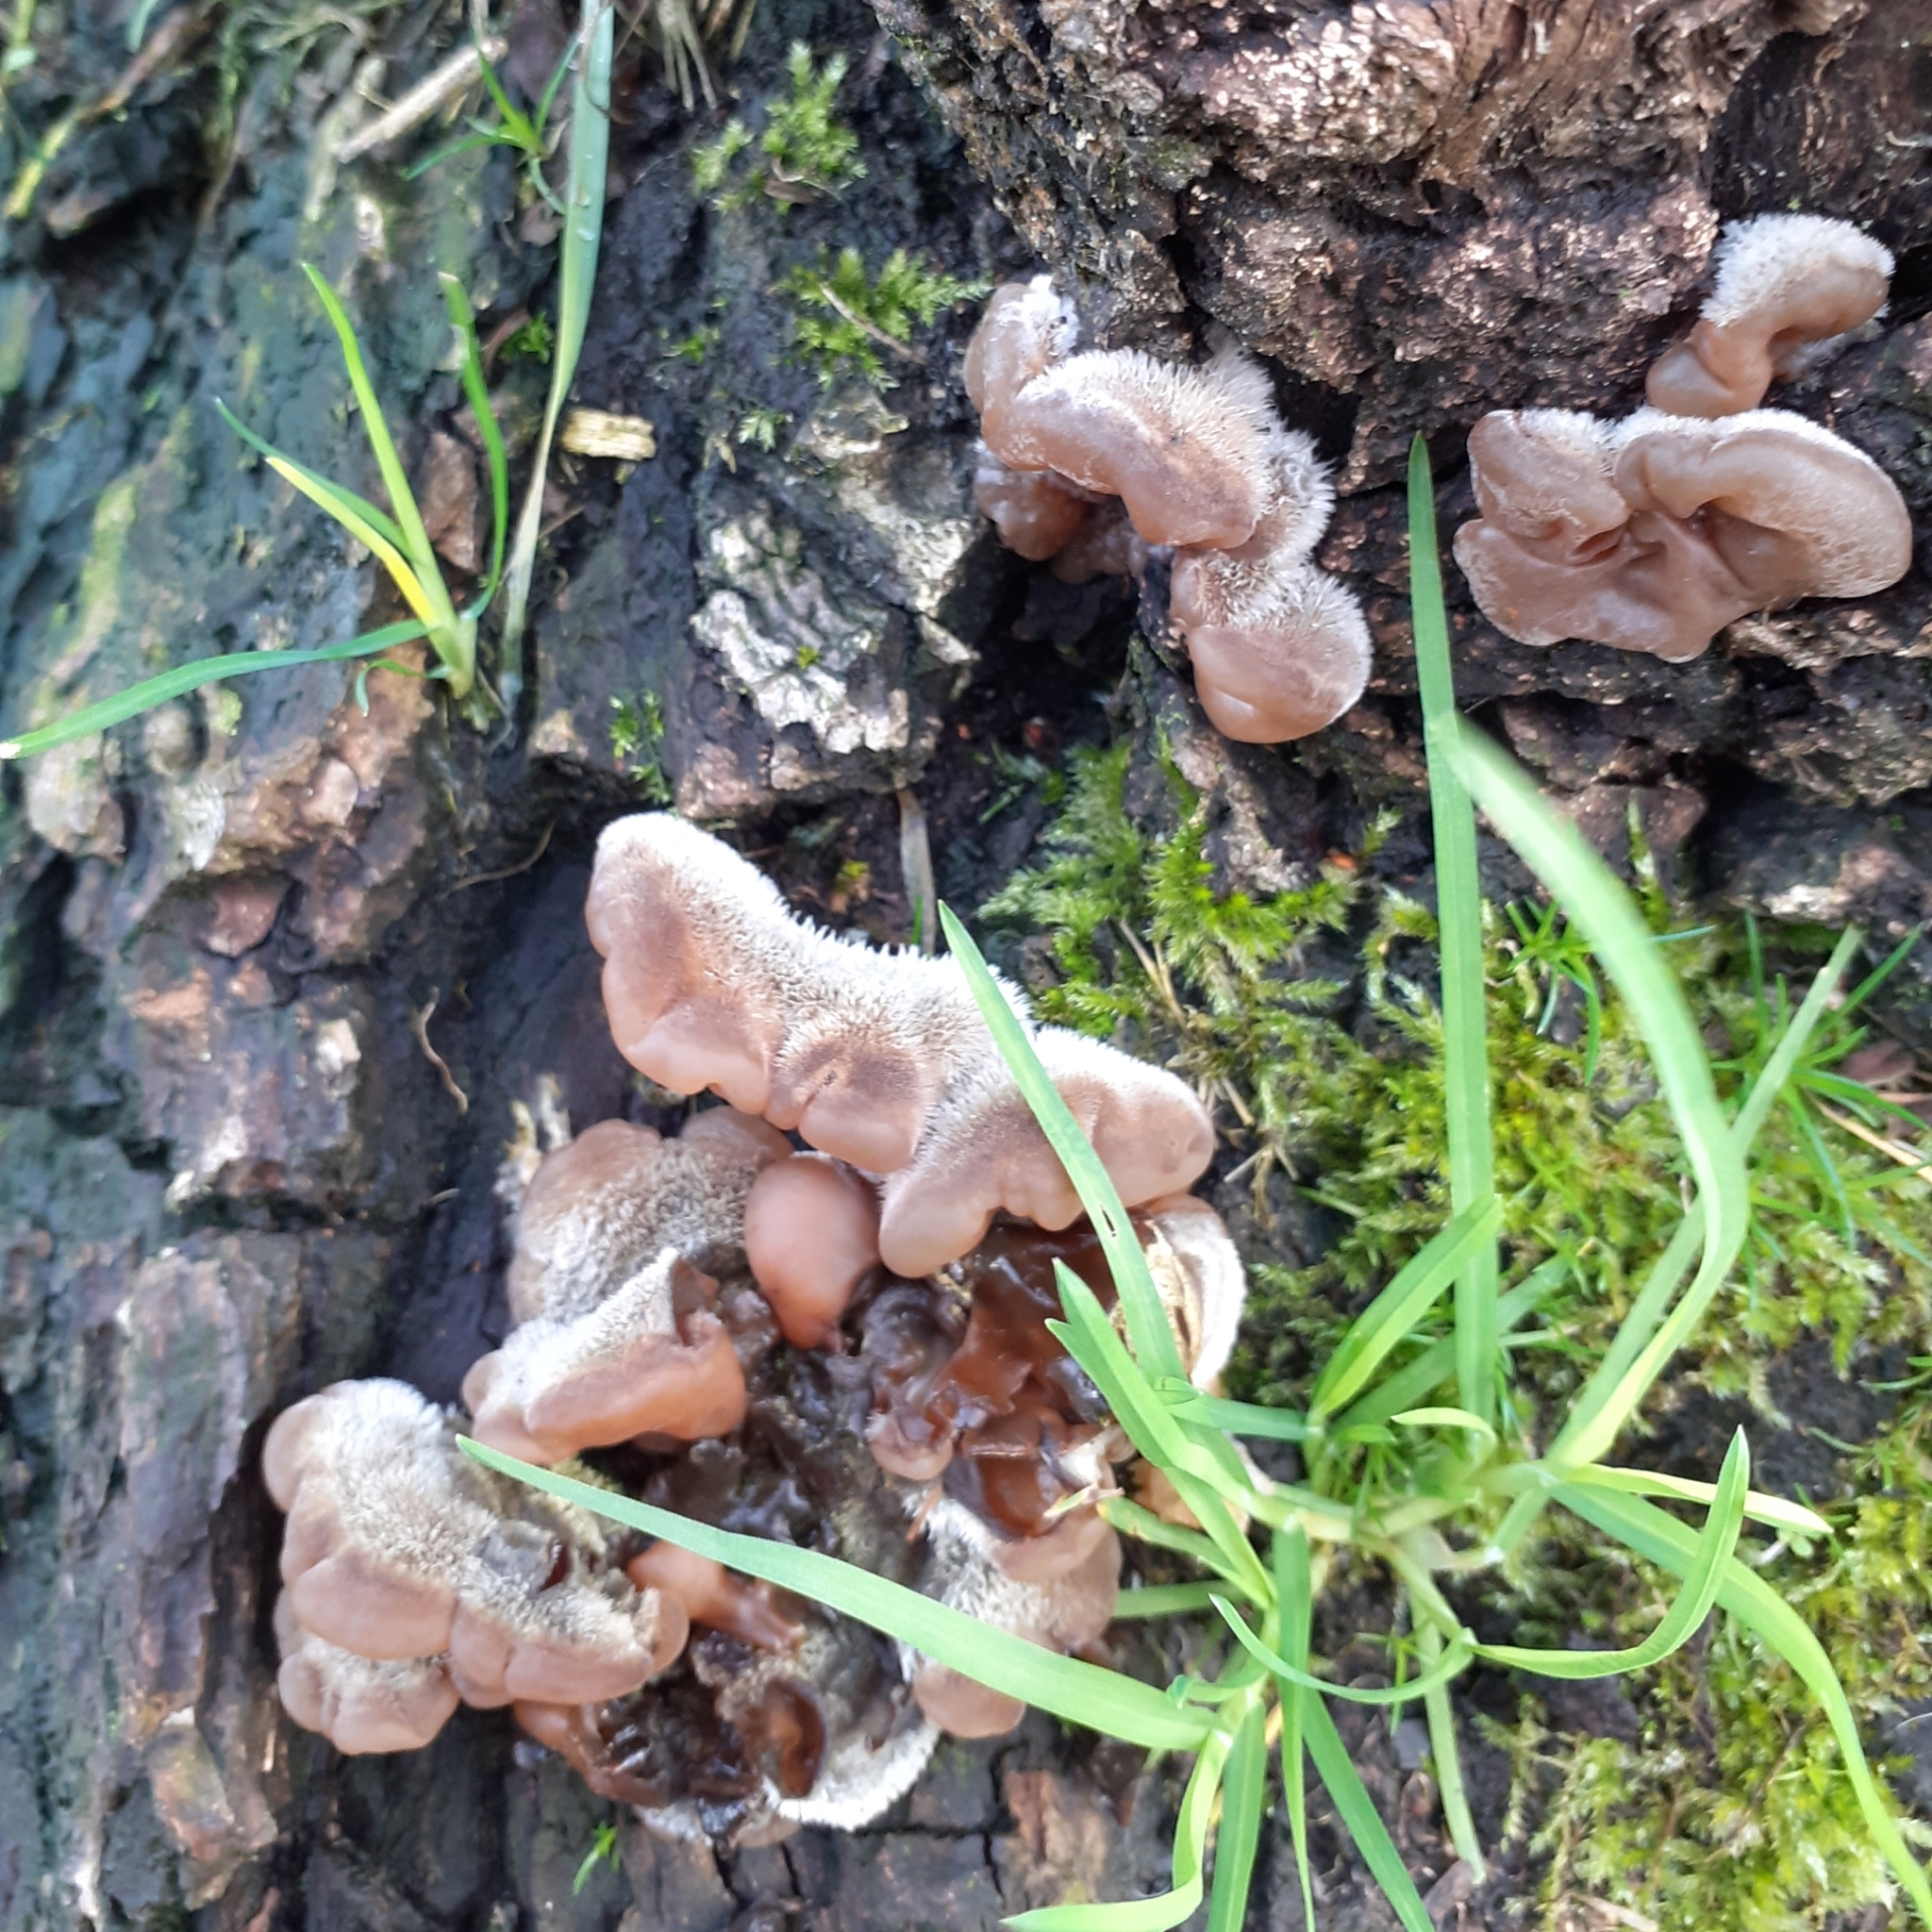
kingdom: Fungi
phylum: Basidiomycota
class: Agaricomycetes
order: Auriculariales
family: Auriculariaceae
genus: Auricularia
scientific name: Auricularia mesenterica
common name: Tripe fungus
